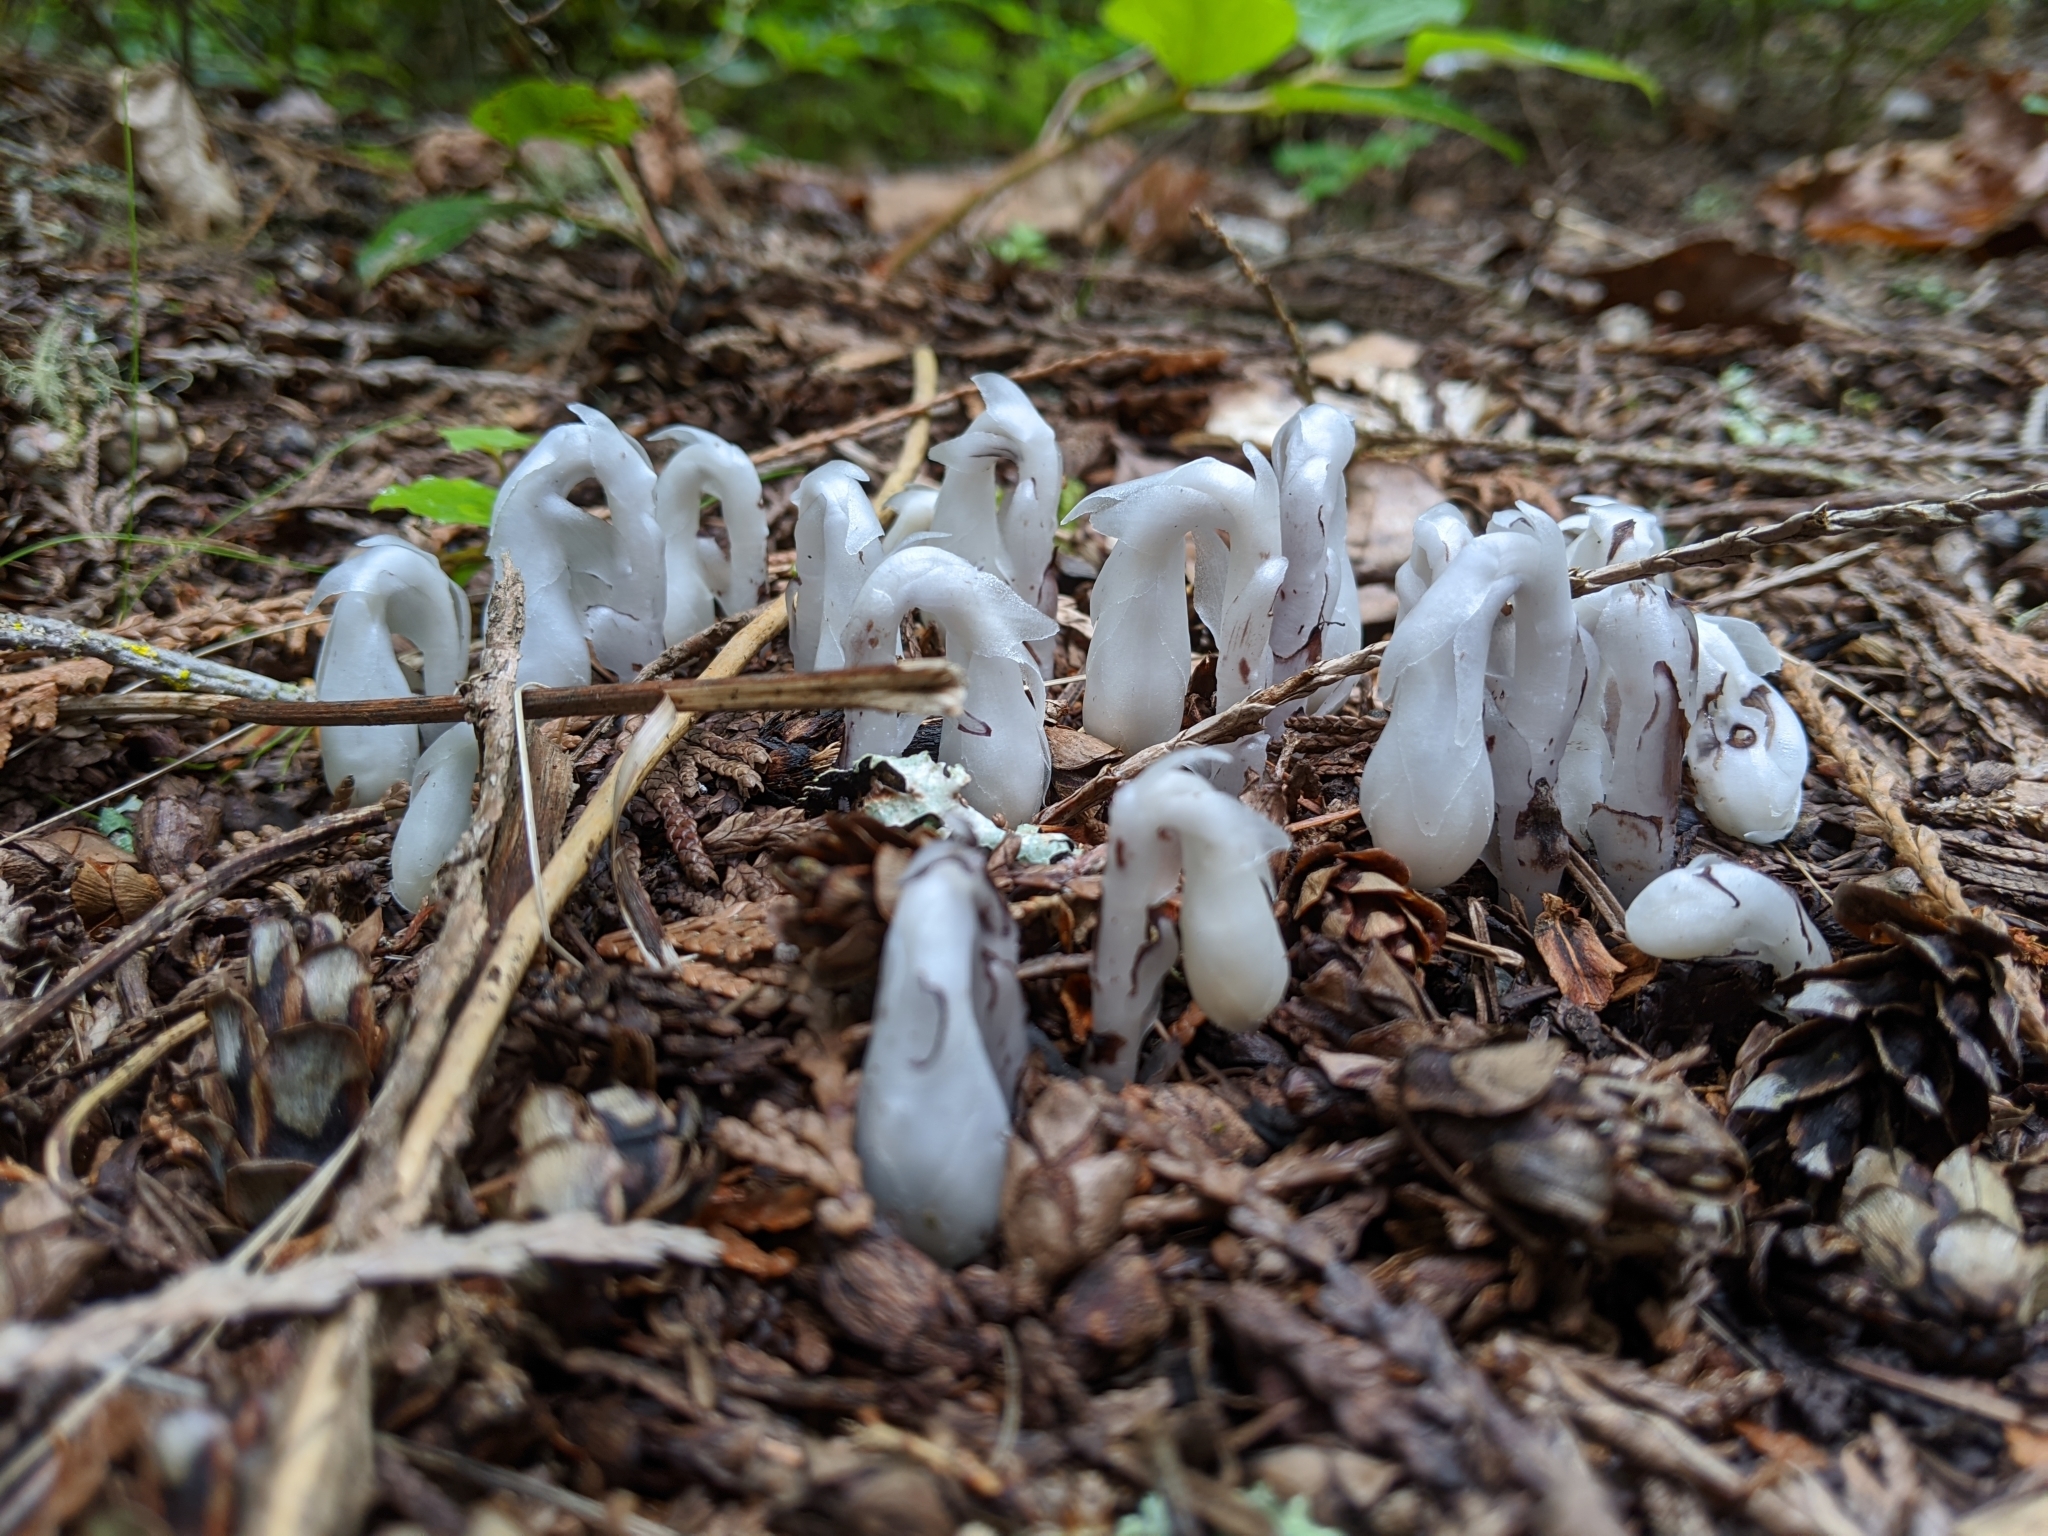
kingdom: Plantae
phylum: Tracheophyta
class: Magnoliopsida
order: Ericales
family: Ericaceae
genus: Monotropa
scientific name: Monotropa uniflora
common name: Convulsion root
